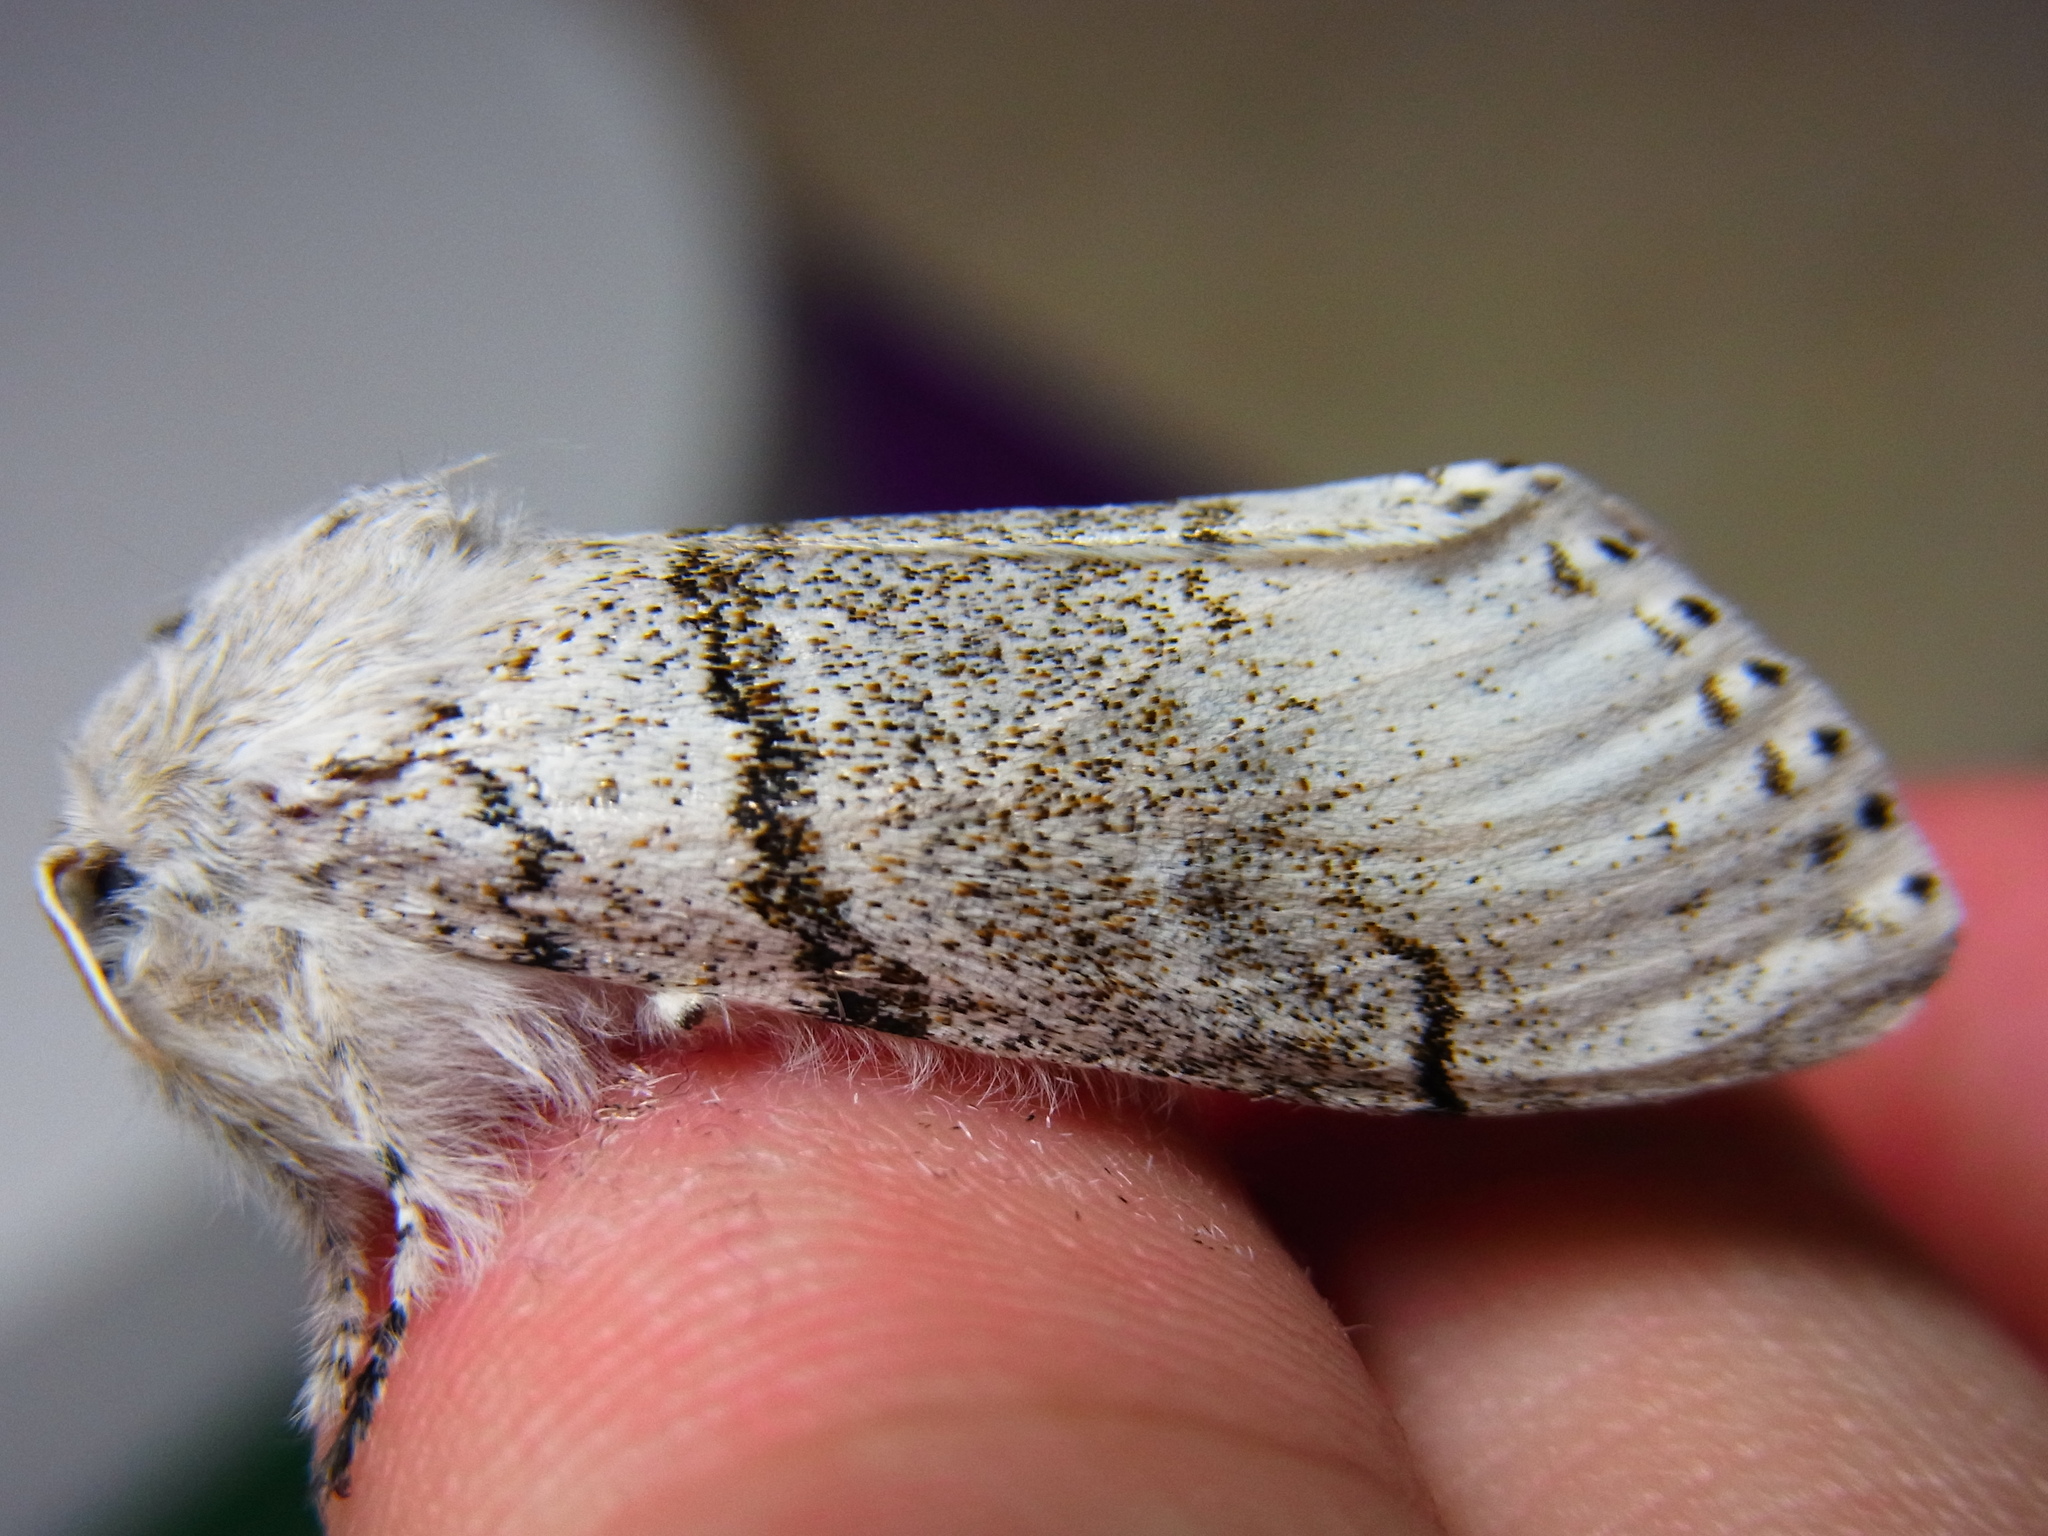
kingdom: Animalia
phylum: Arthropoda
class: Insecta
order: Lepidoptera
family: Erebidae
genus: Calliteara
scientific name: Calliteara
